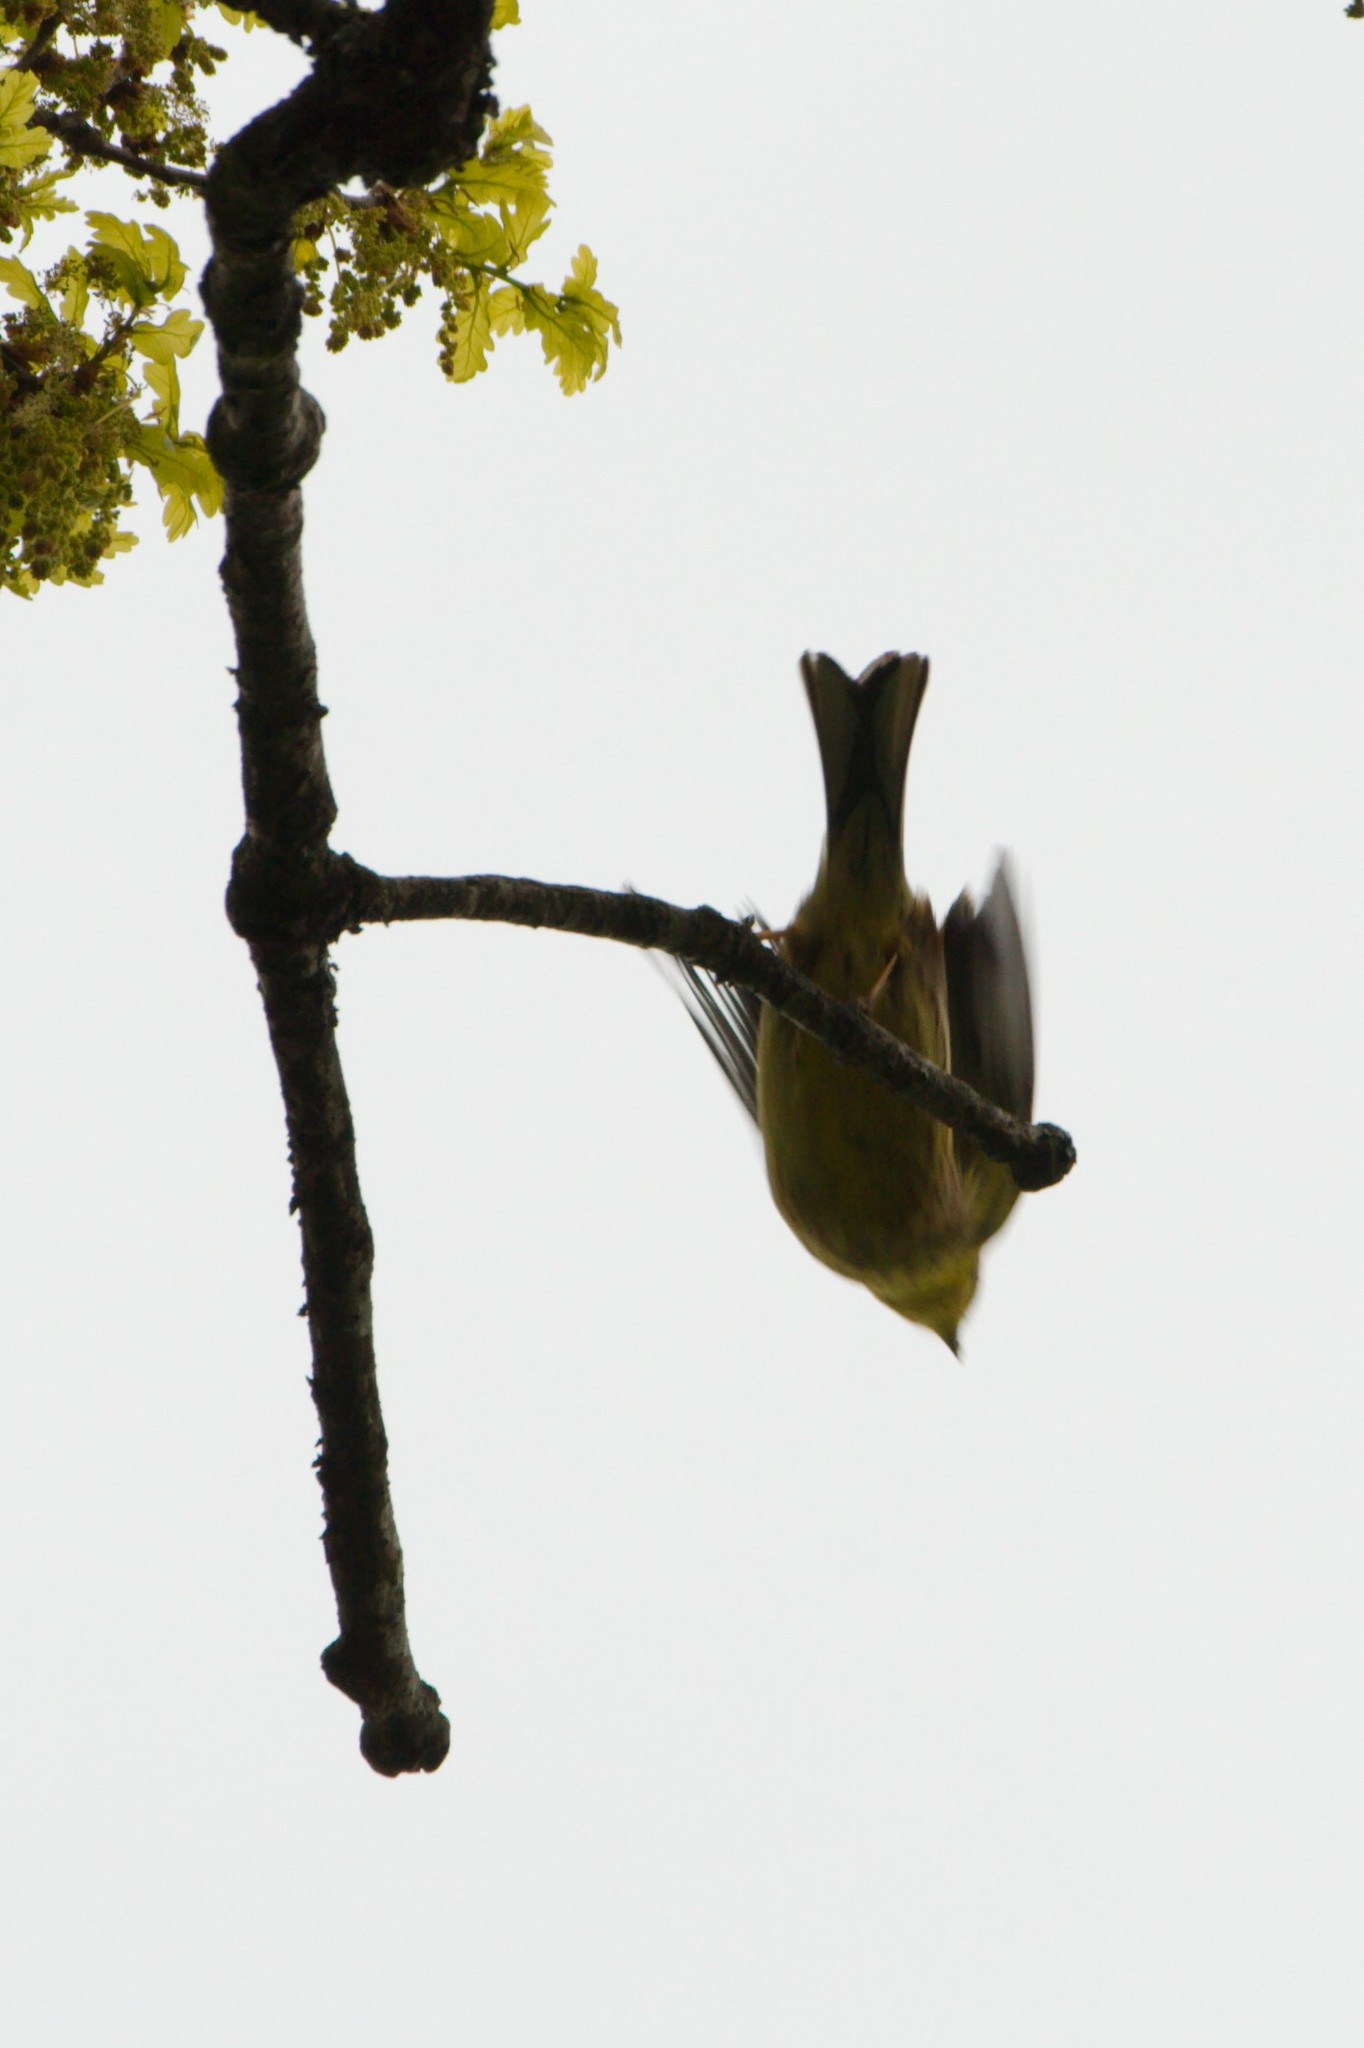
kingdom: Animalia
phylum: Chordata
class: Aves
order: Passeriformes
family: Emberizidae
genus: Emberiza
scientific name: Emberiza citrinella
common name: Yellowhammer
